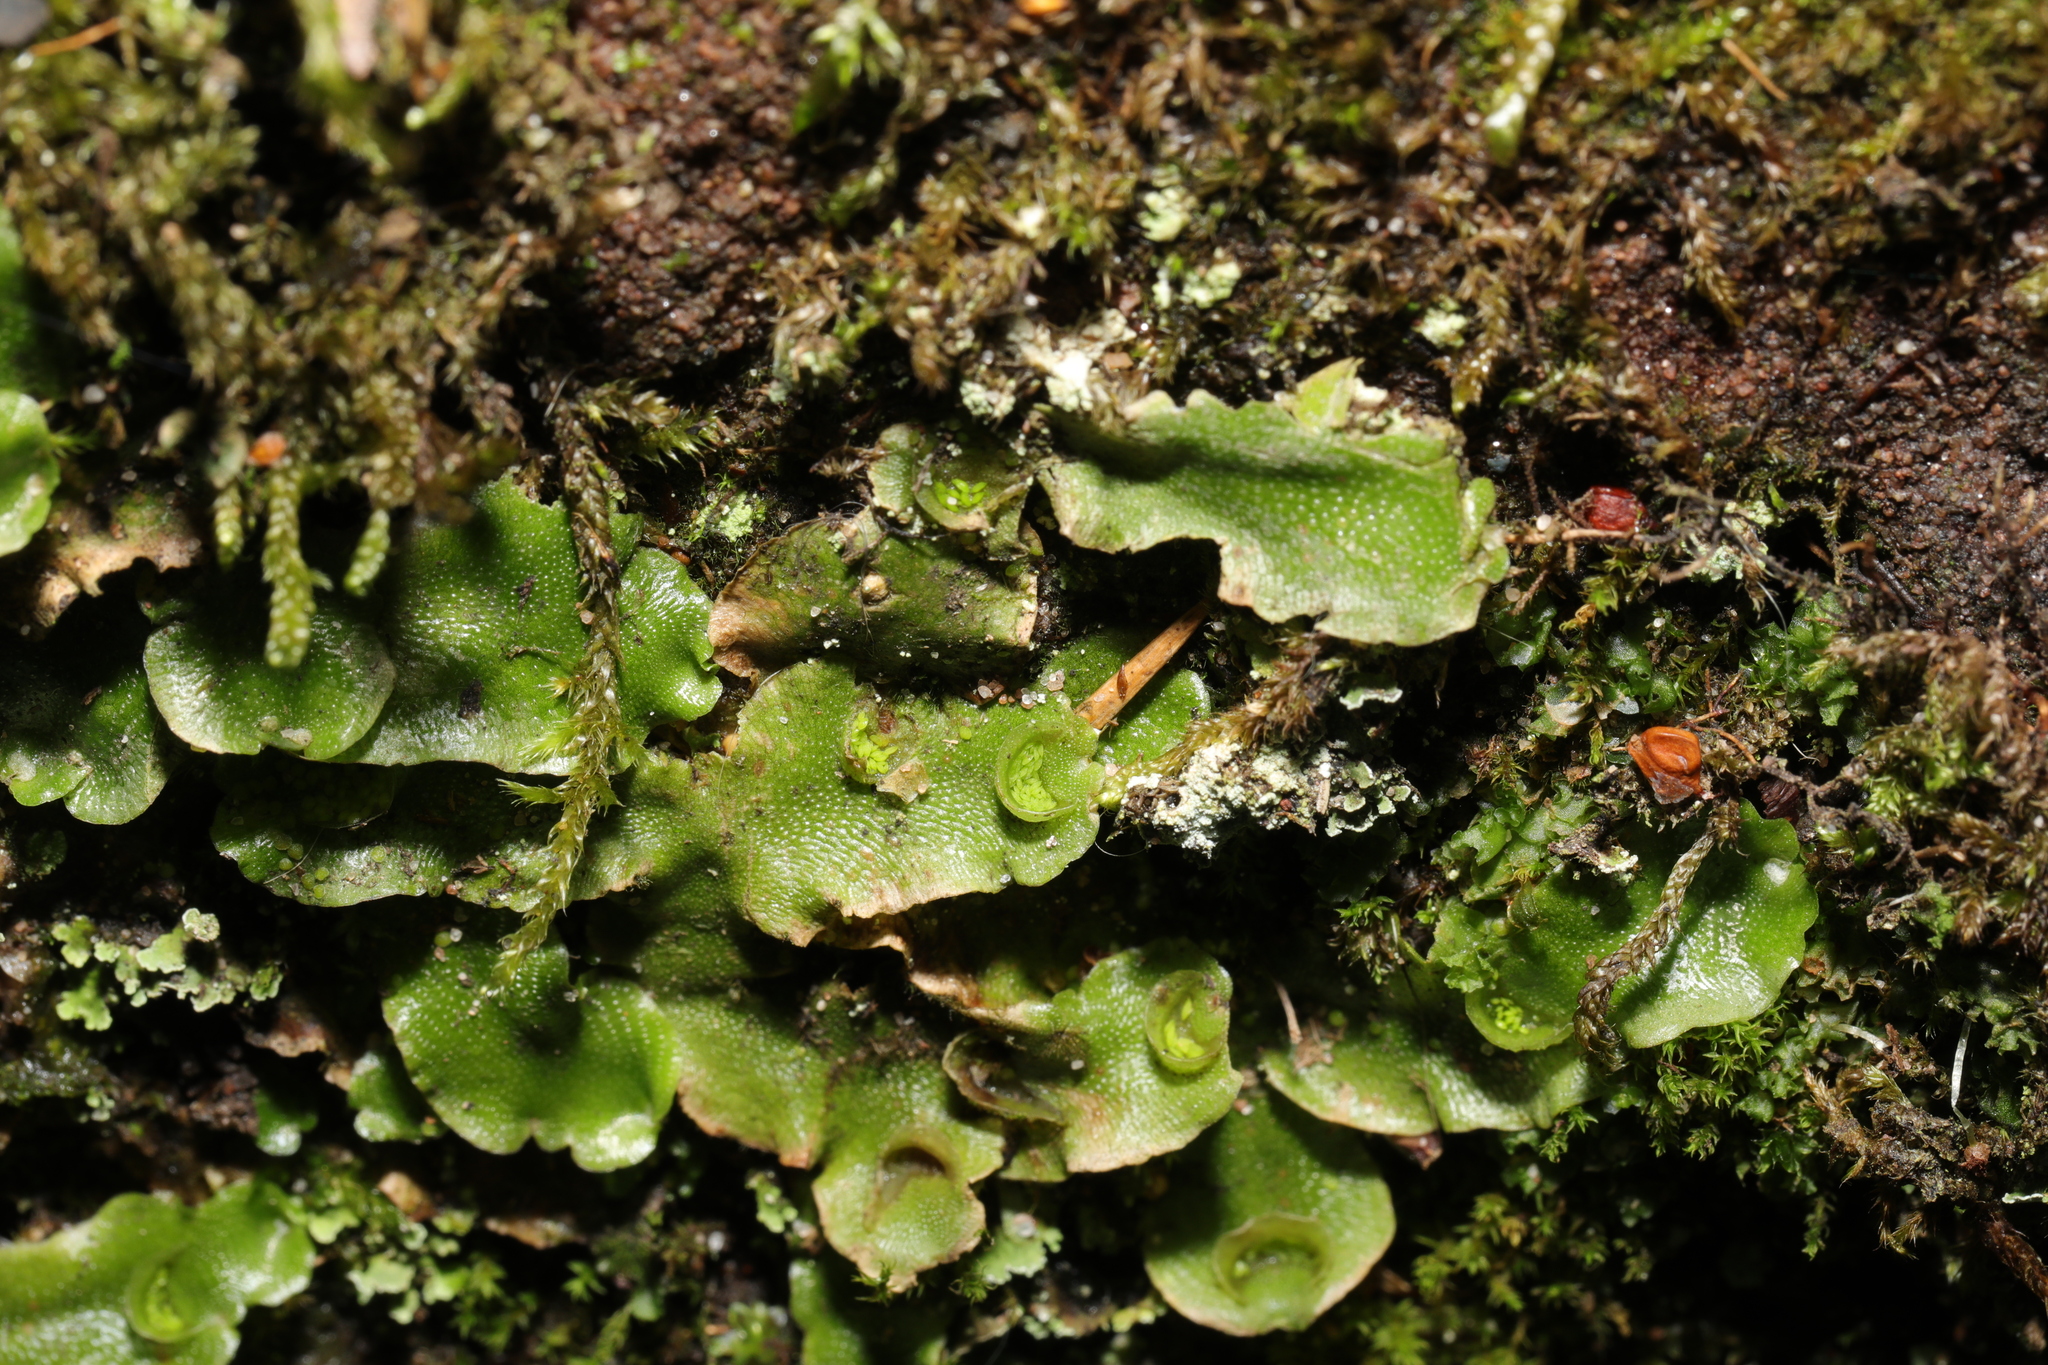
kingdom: Plantae
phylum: Marchantiophyta
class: Marchantiopsida
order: Lunulariales
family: Lunulariaceae
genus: Lunularia
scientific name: Lunularia cruciata
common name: Crescent-cup liverwort
